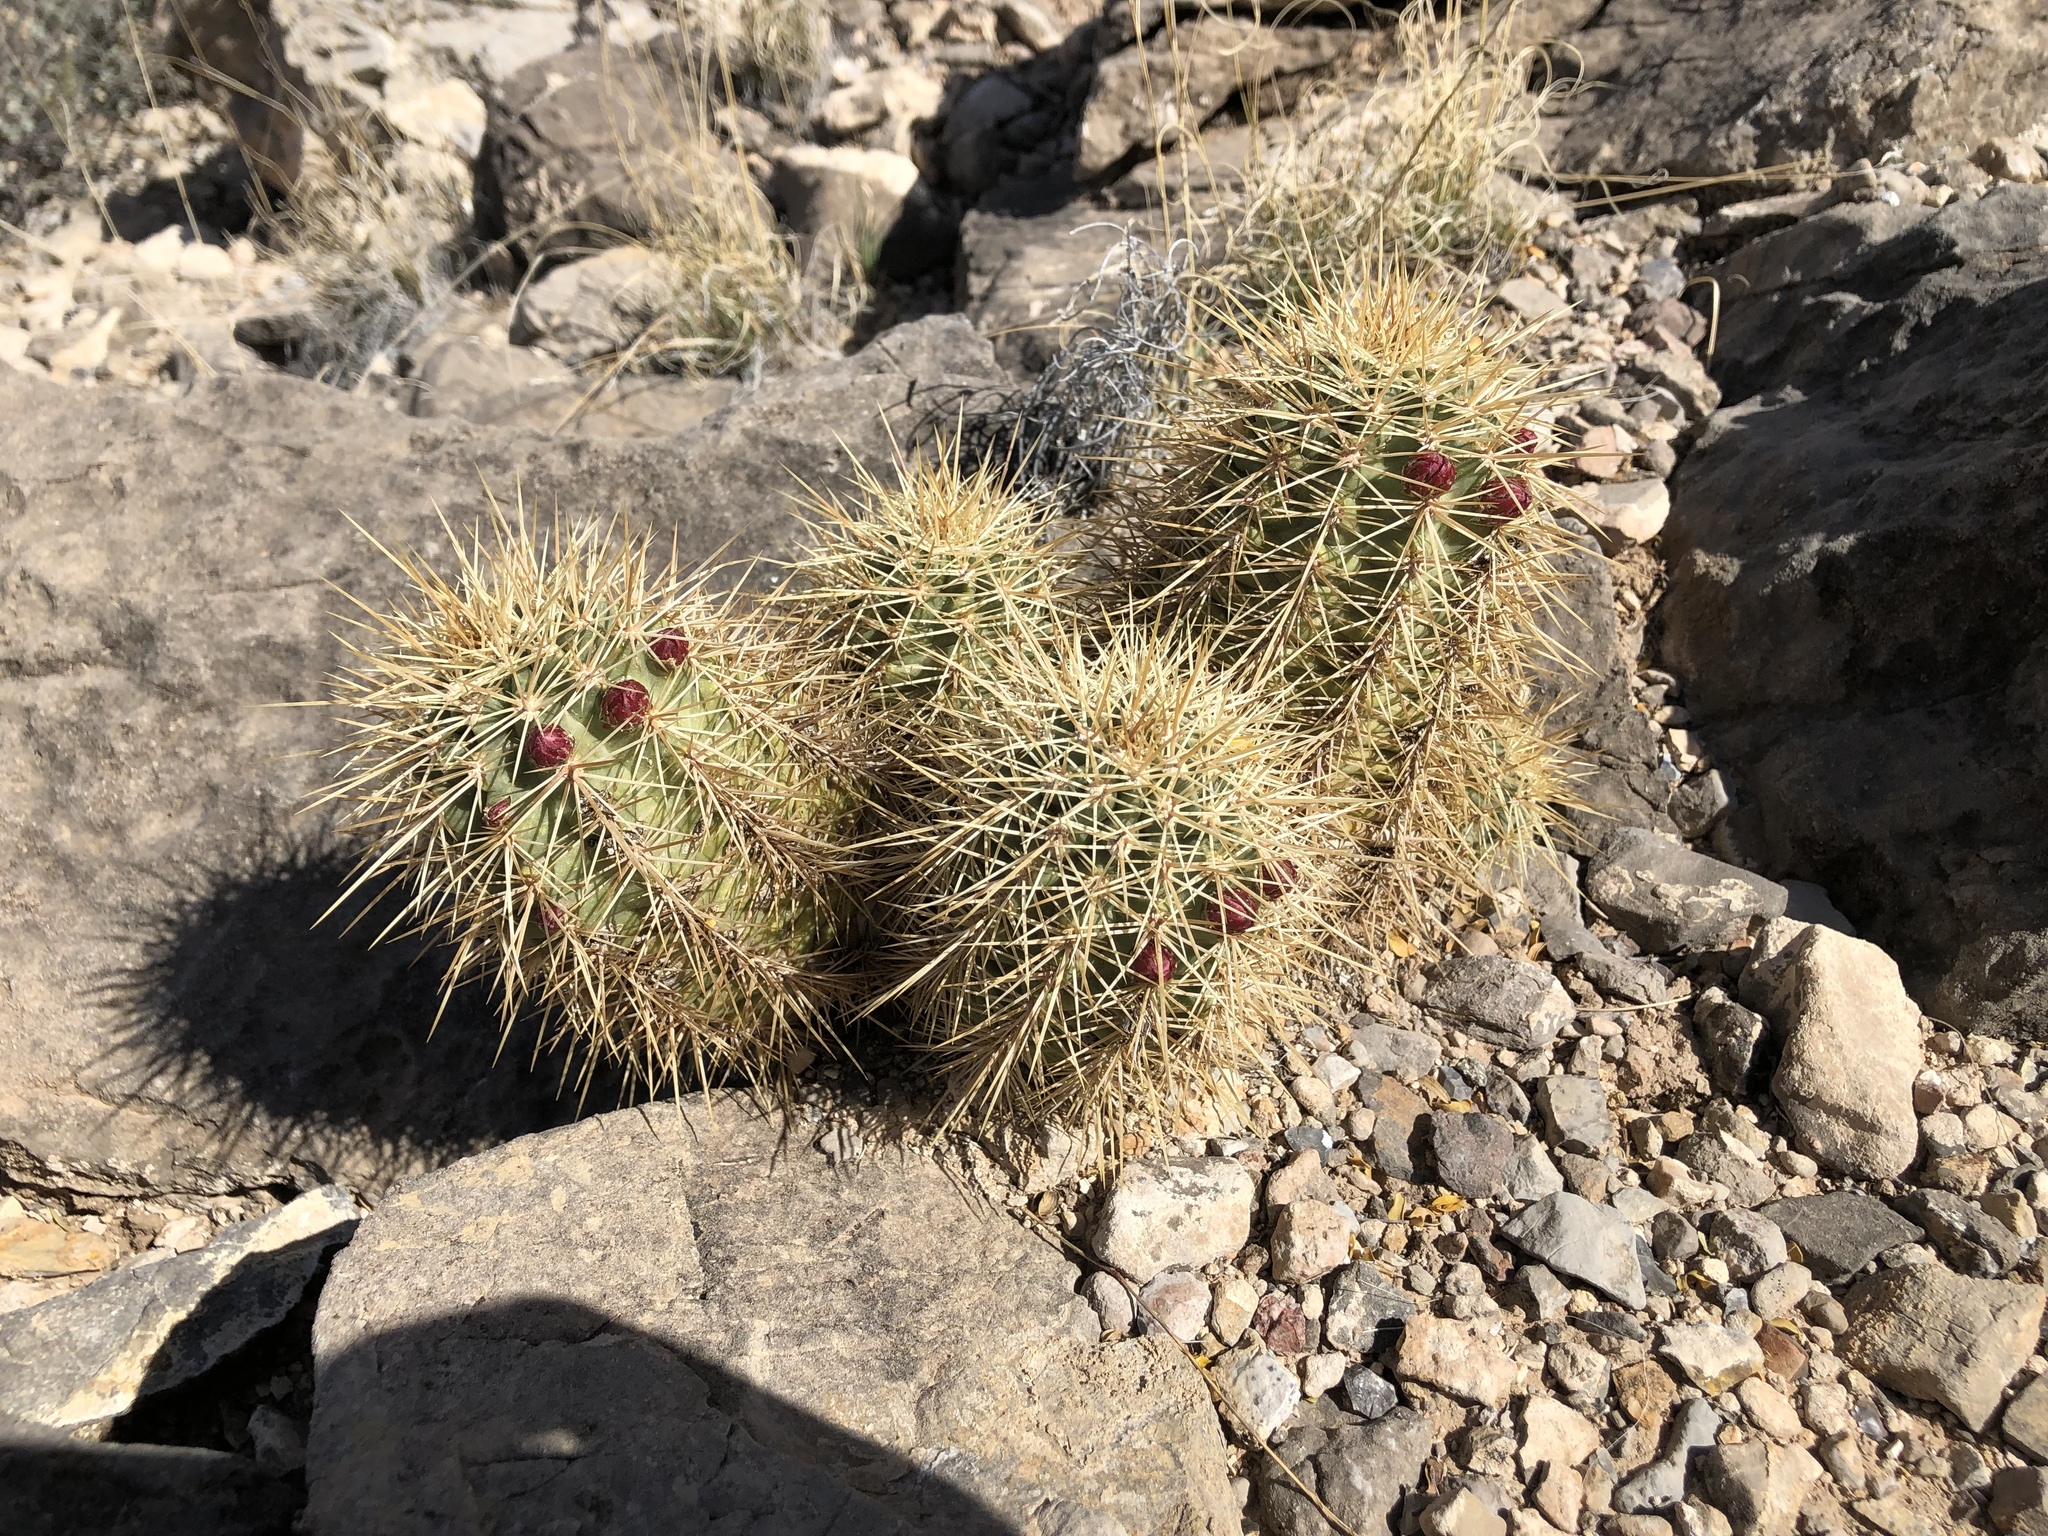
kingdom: Plantae
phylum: Tracheophyta
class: Magnoliopsida
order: Caryophyllales
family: Cactaceae
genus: Echinocereus
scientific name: Echinocereus coccineus
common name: Scarlet hedgehog cactus
